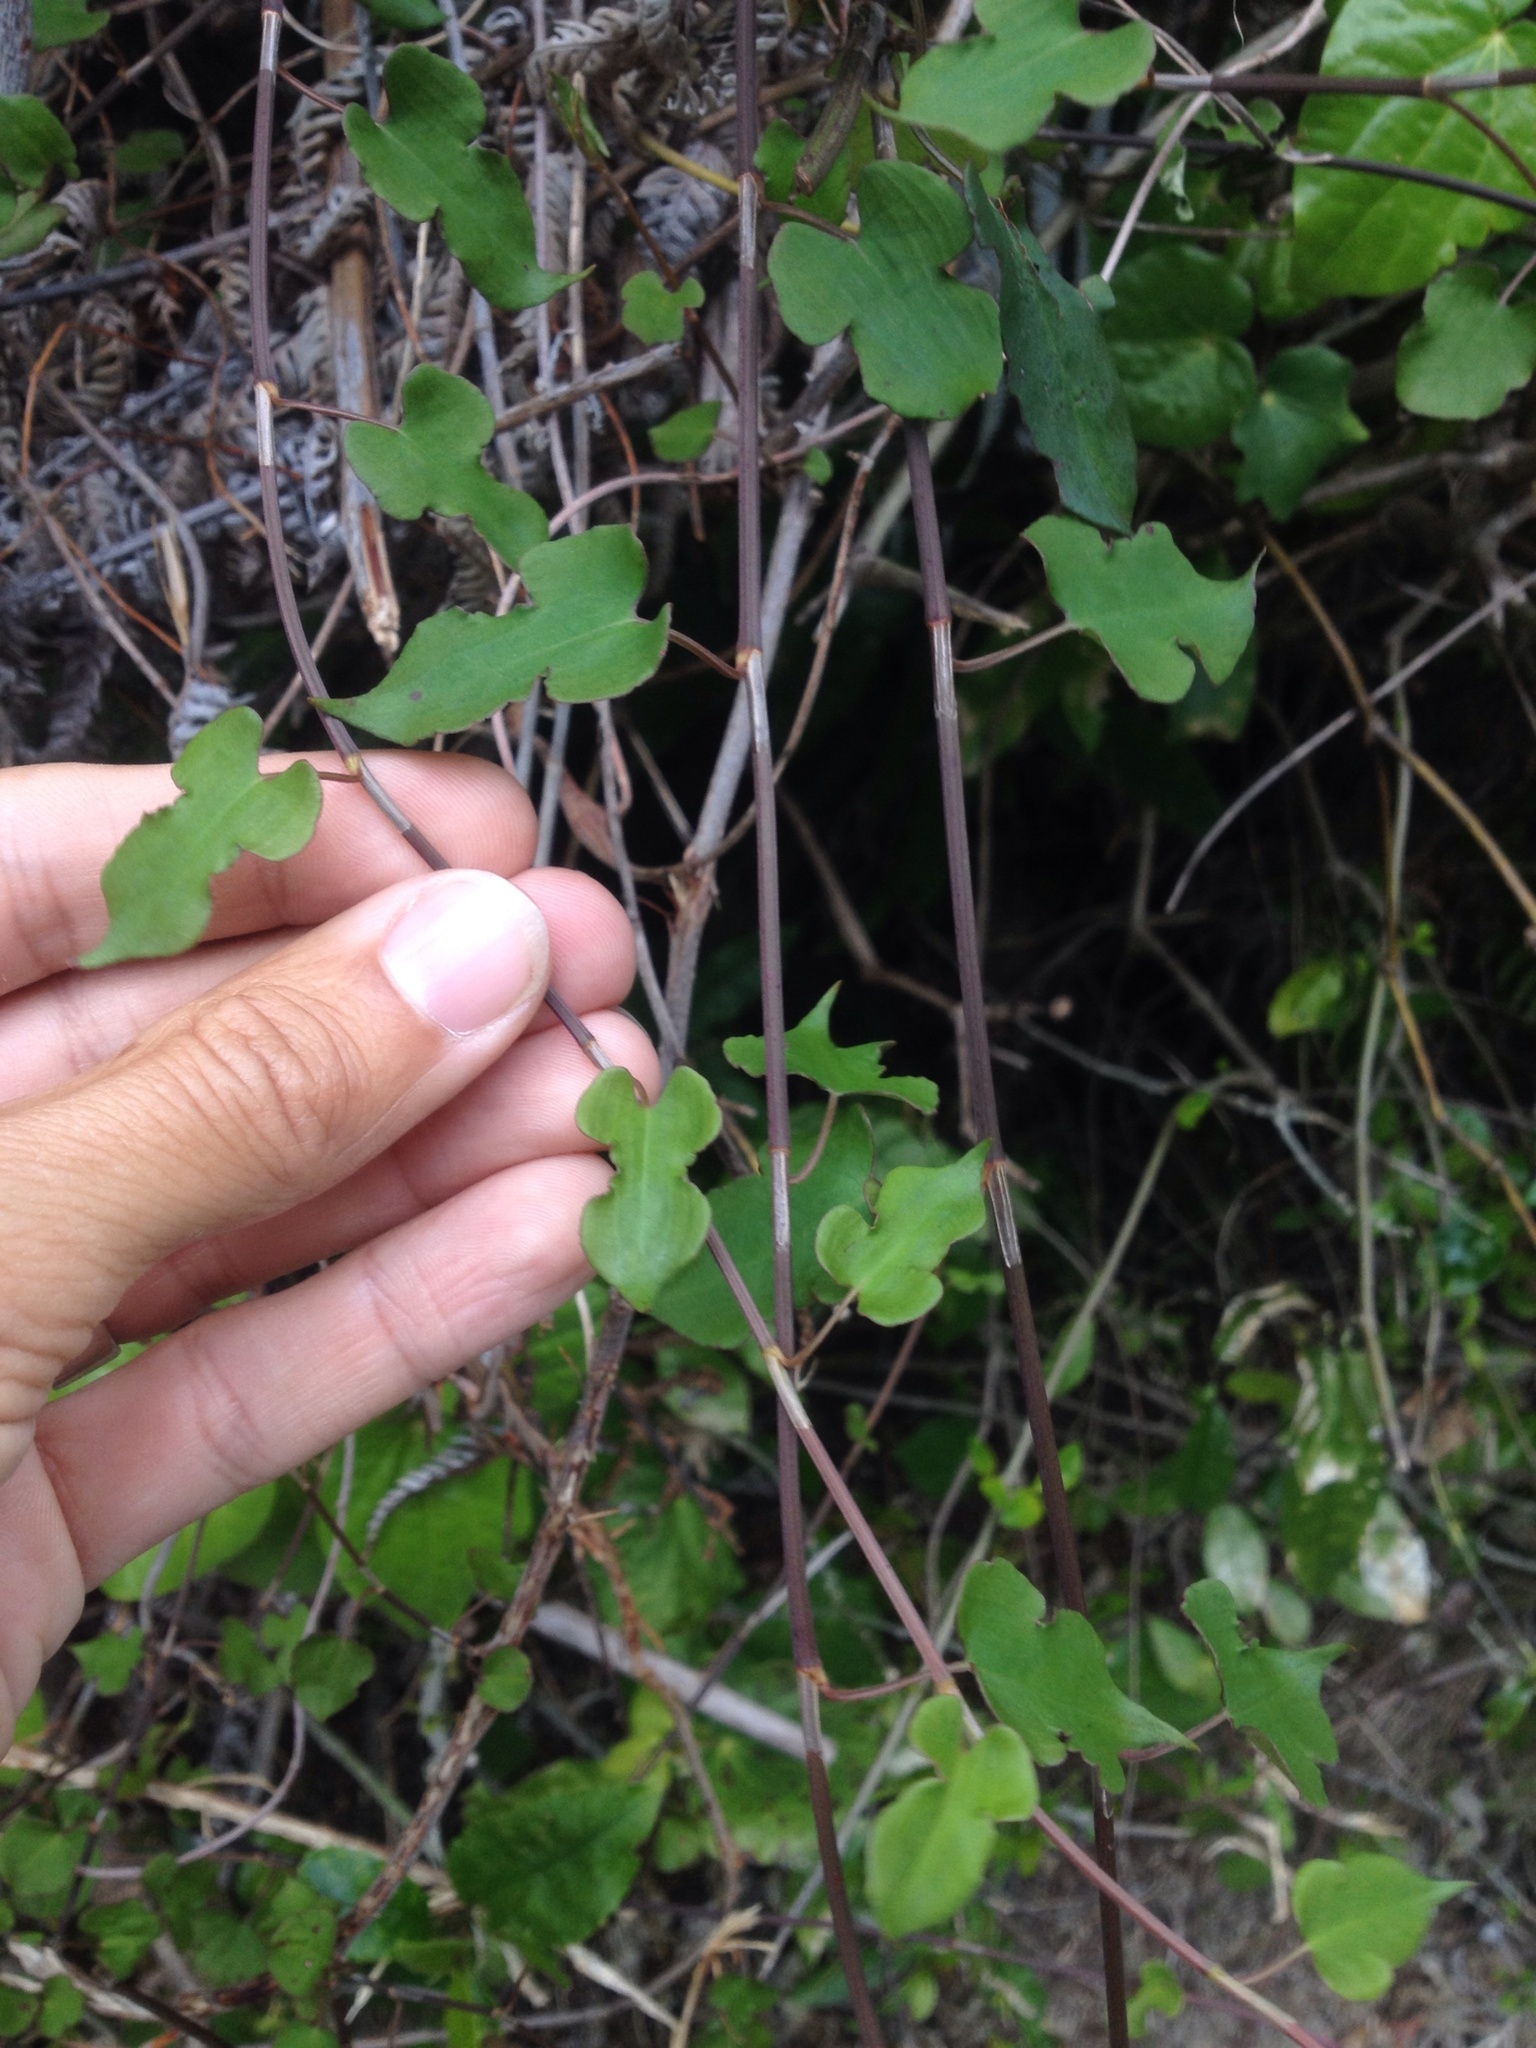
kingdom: Plantae
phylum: Tracheophyta
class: Magnoliopsida
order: Caryophyllales
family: Polygonaceae
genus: Muehlenbeckia
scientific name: Muehlenbeckia australis
